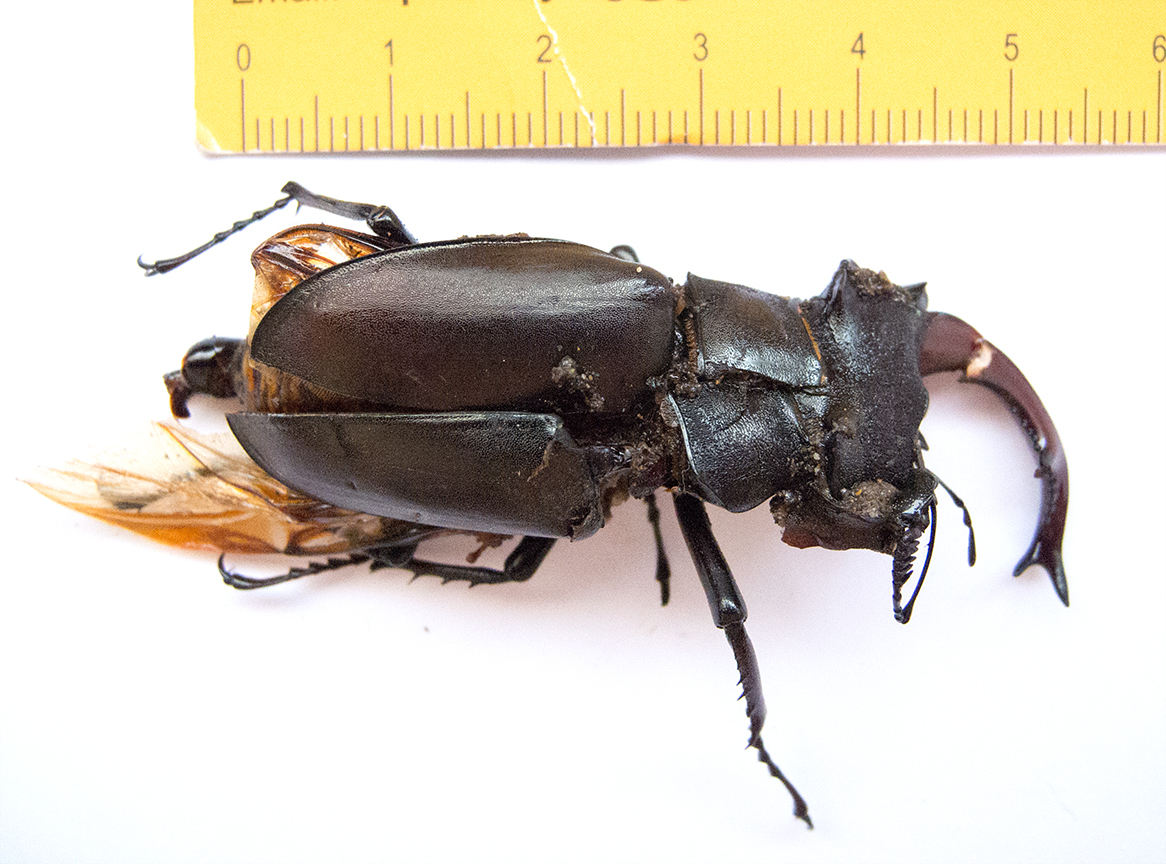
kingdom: Animalia
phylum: Arthropoda
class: Insecta
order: Coleoptera
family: Lucanidae
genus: Lucanus
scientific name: Lucanus cervus
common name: Stag beetle
